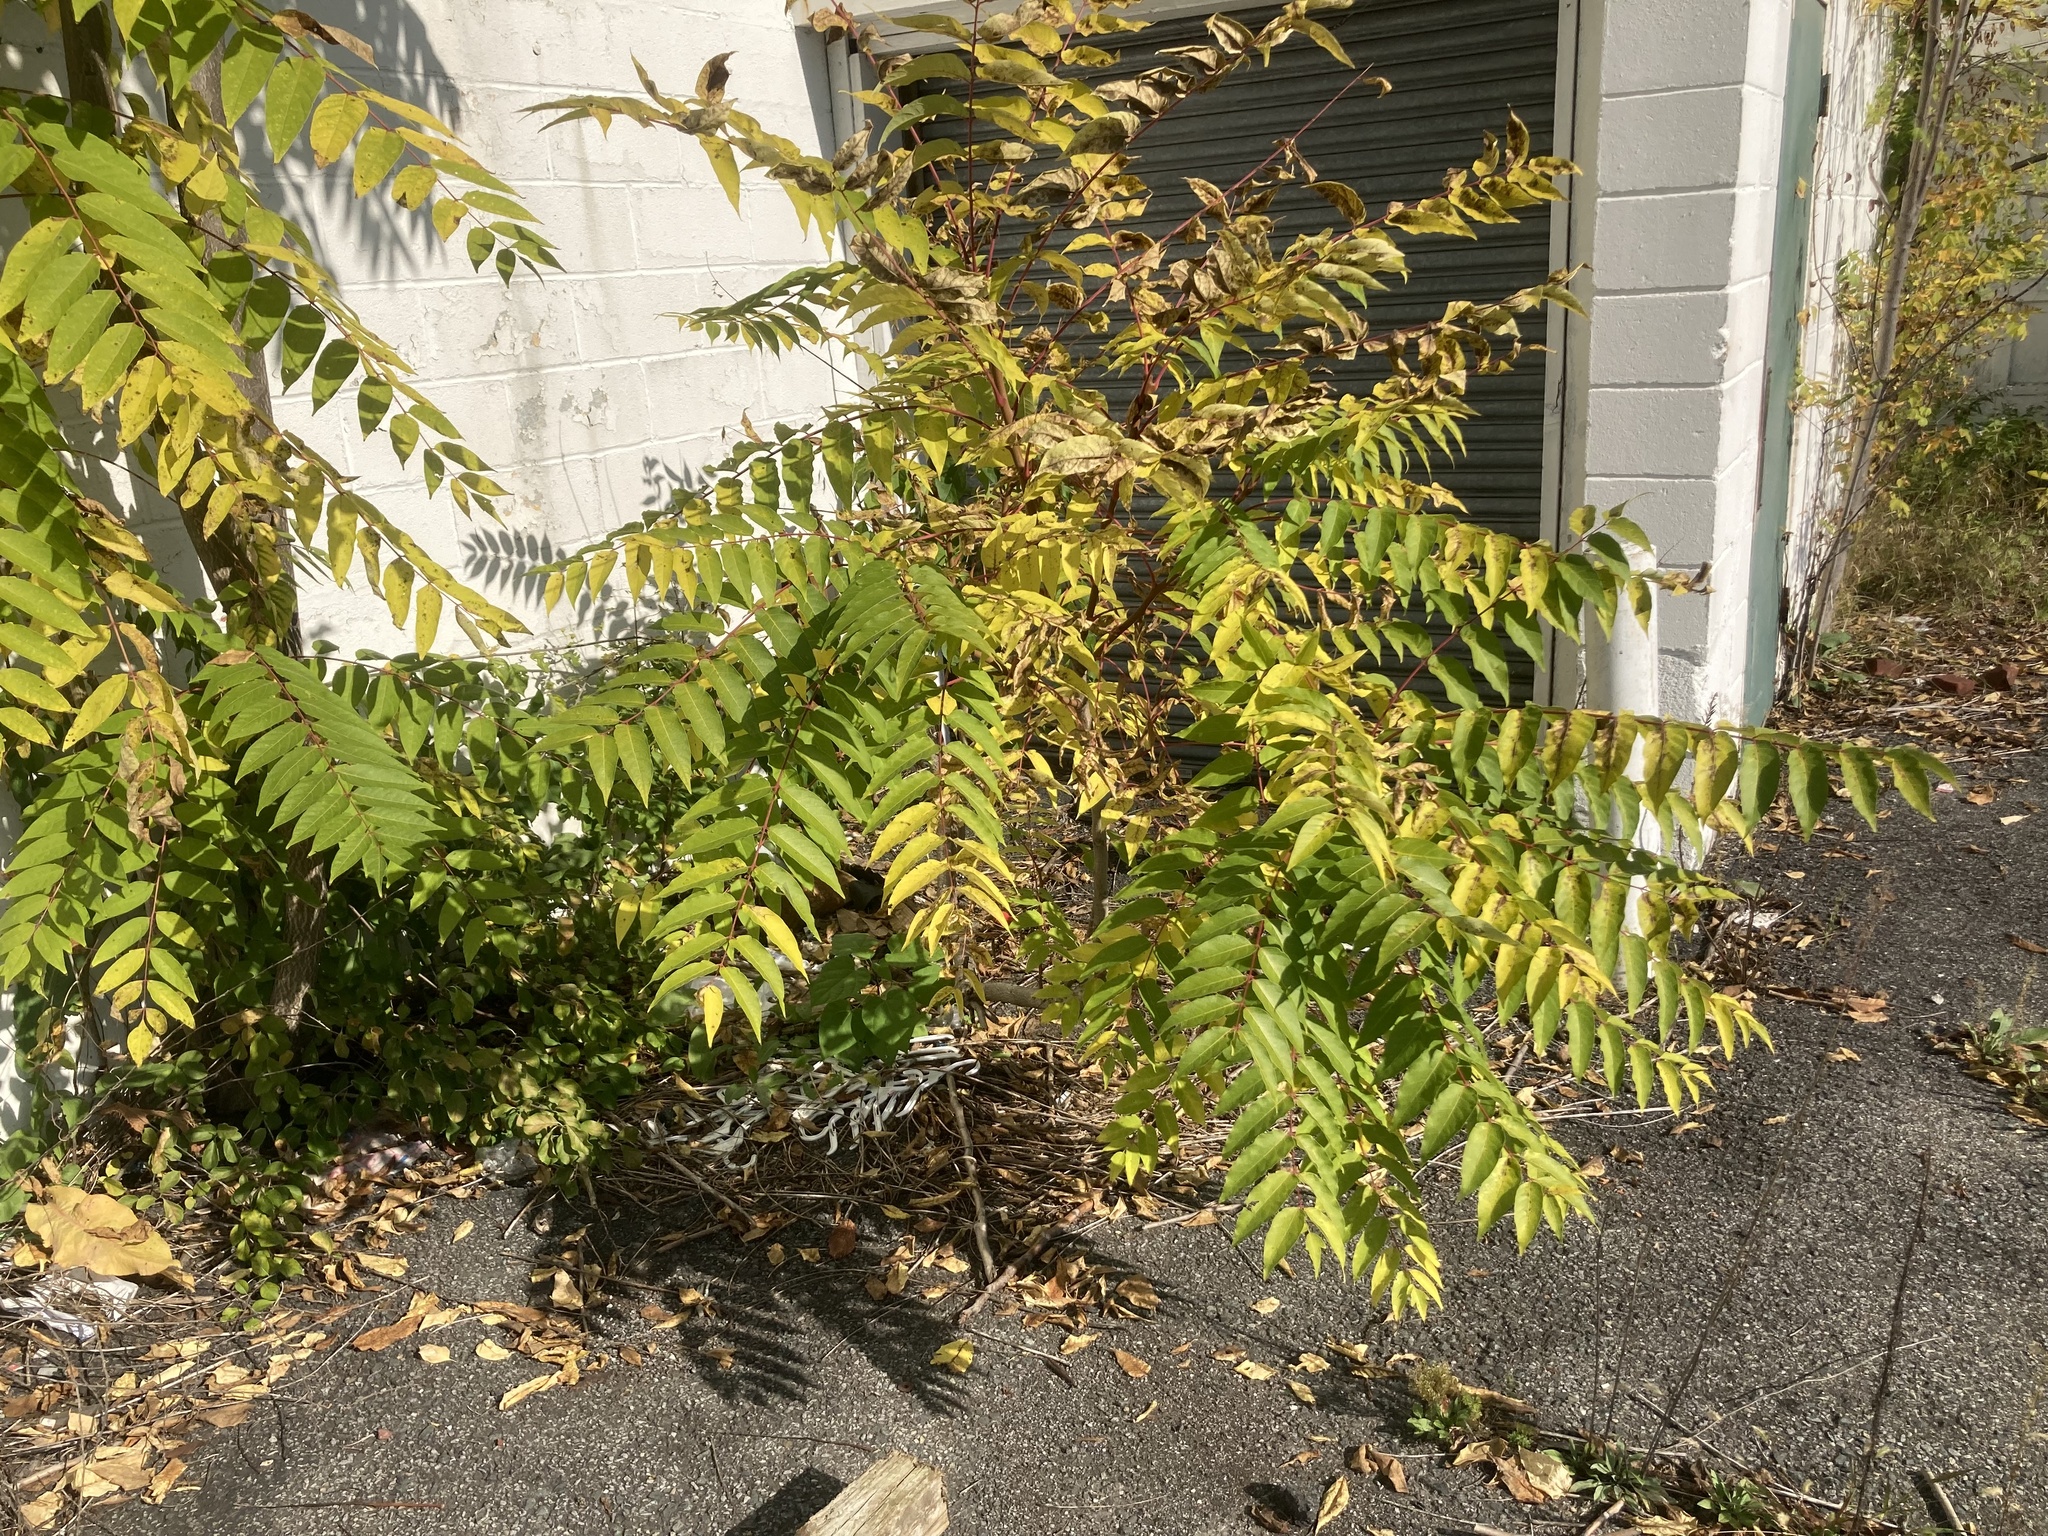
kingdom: Plantae
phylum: Tracheophyta
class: Magnoliopsida
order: Sapindales
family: Simaroubaceae
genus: Ailanthus
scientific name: Ailanthus altissima
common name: Tree-of-heaven
